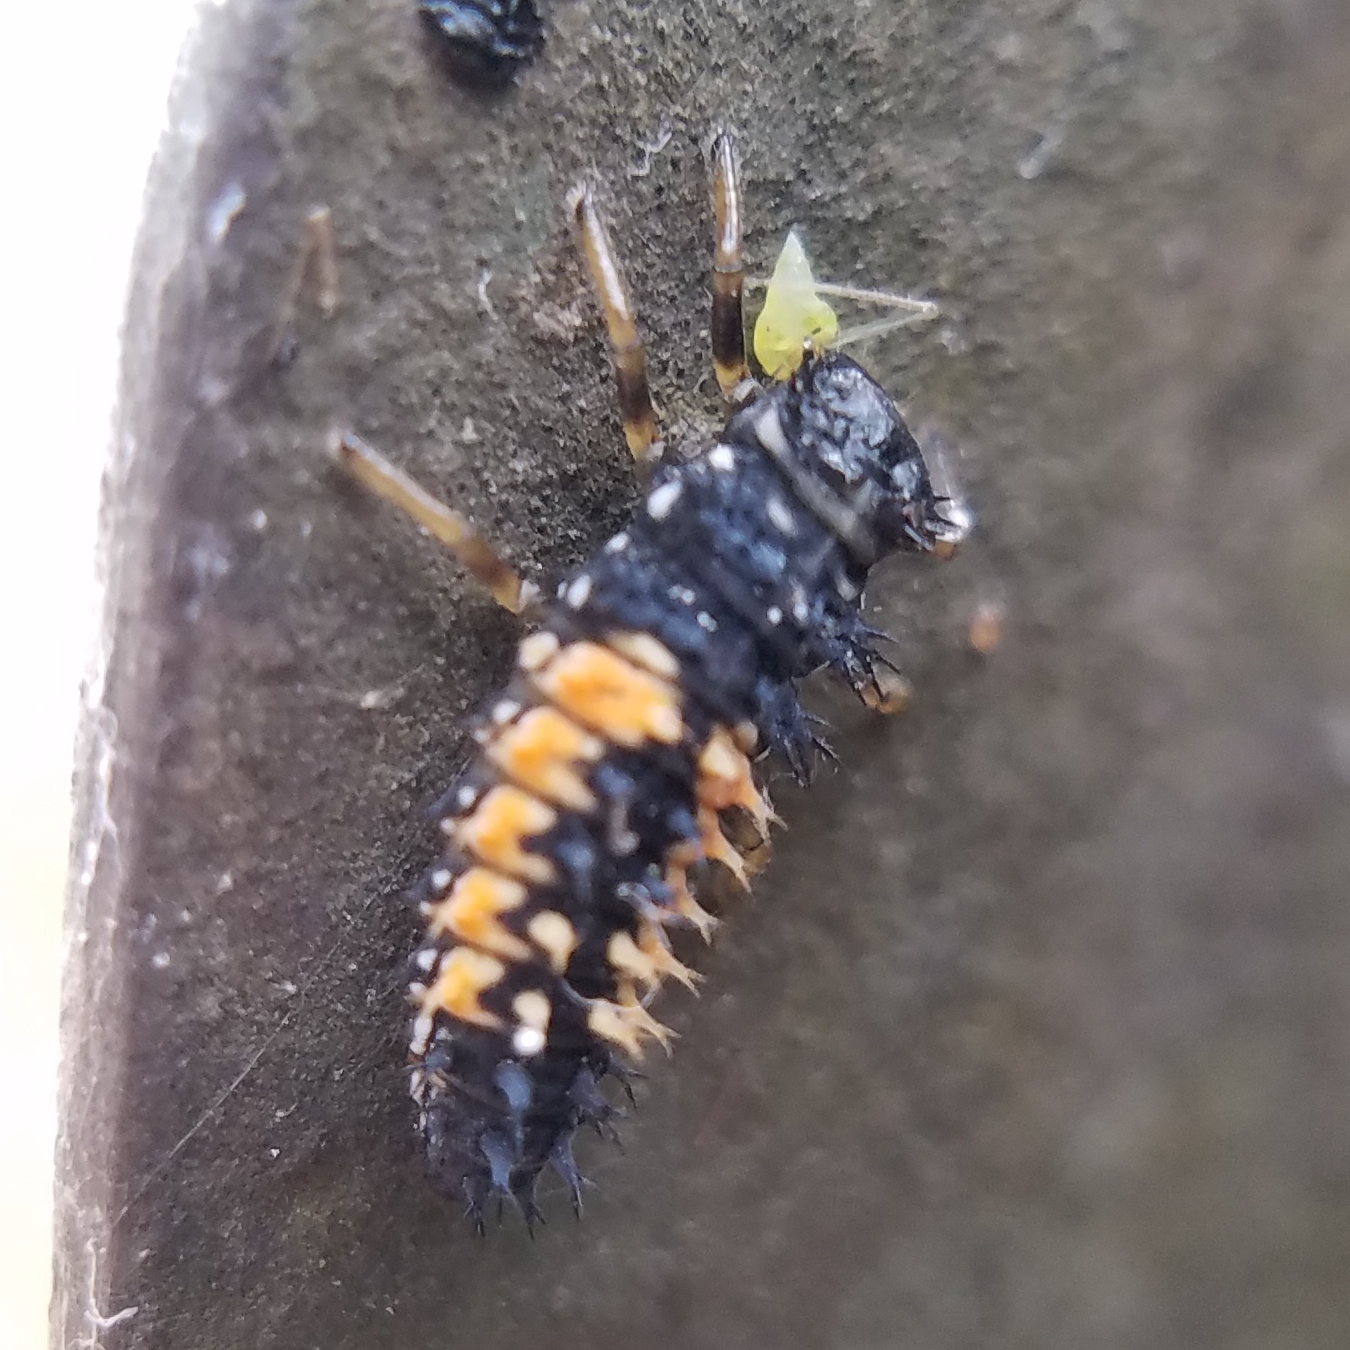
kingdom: Animalia
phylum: Arthropoda
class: Insecta
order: Coleoptera
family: Coccinellidae
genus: Harmonia
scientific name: Harmonia axyridis
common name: Harlequin ladybird
